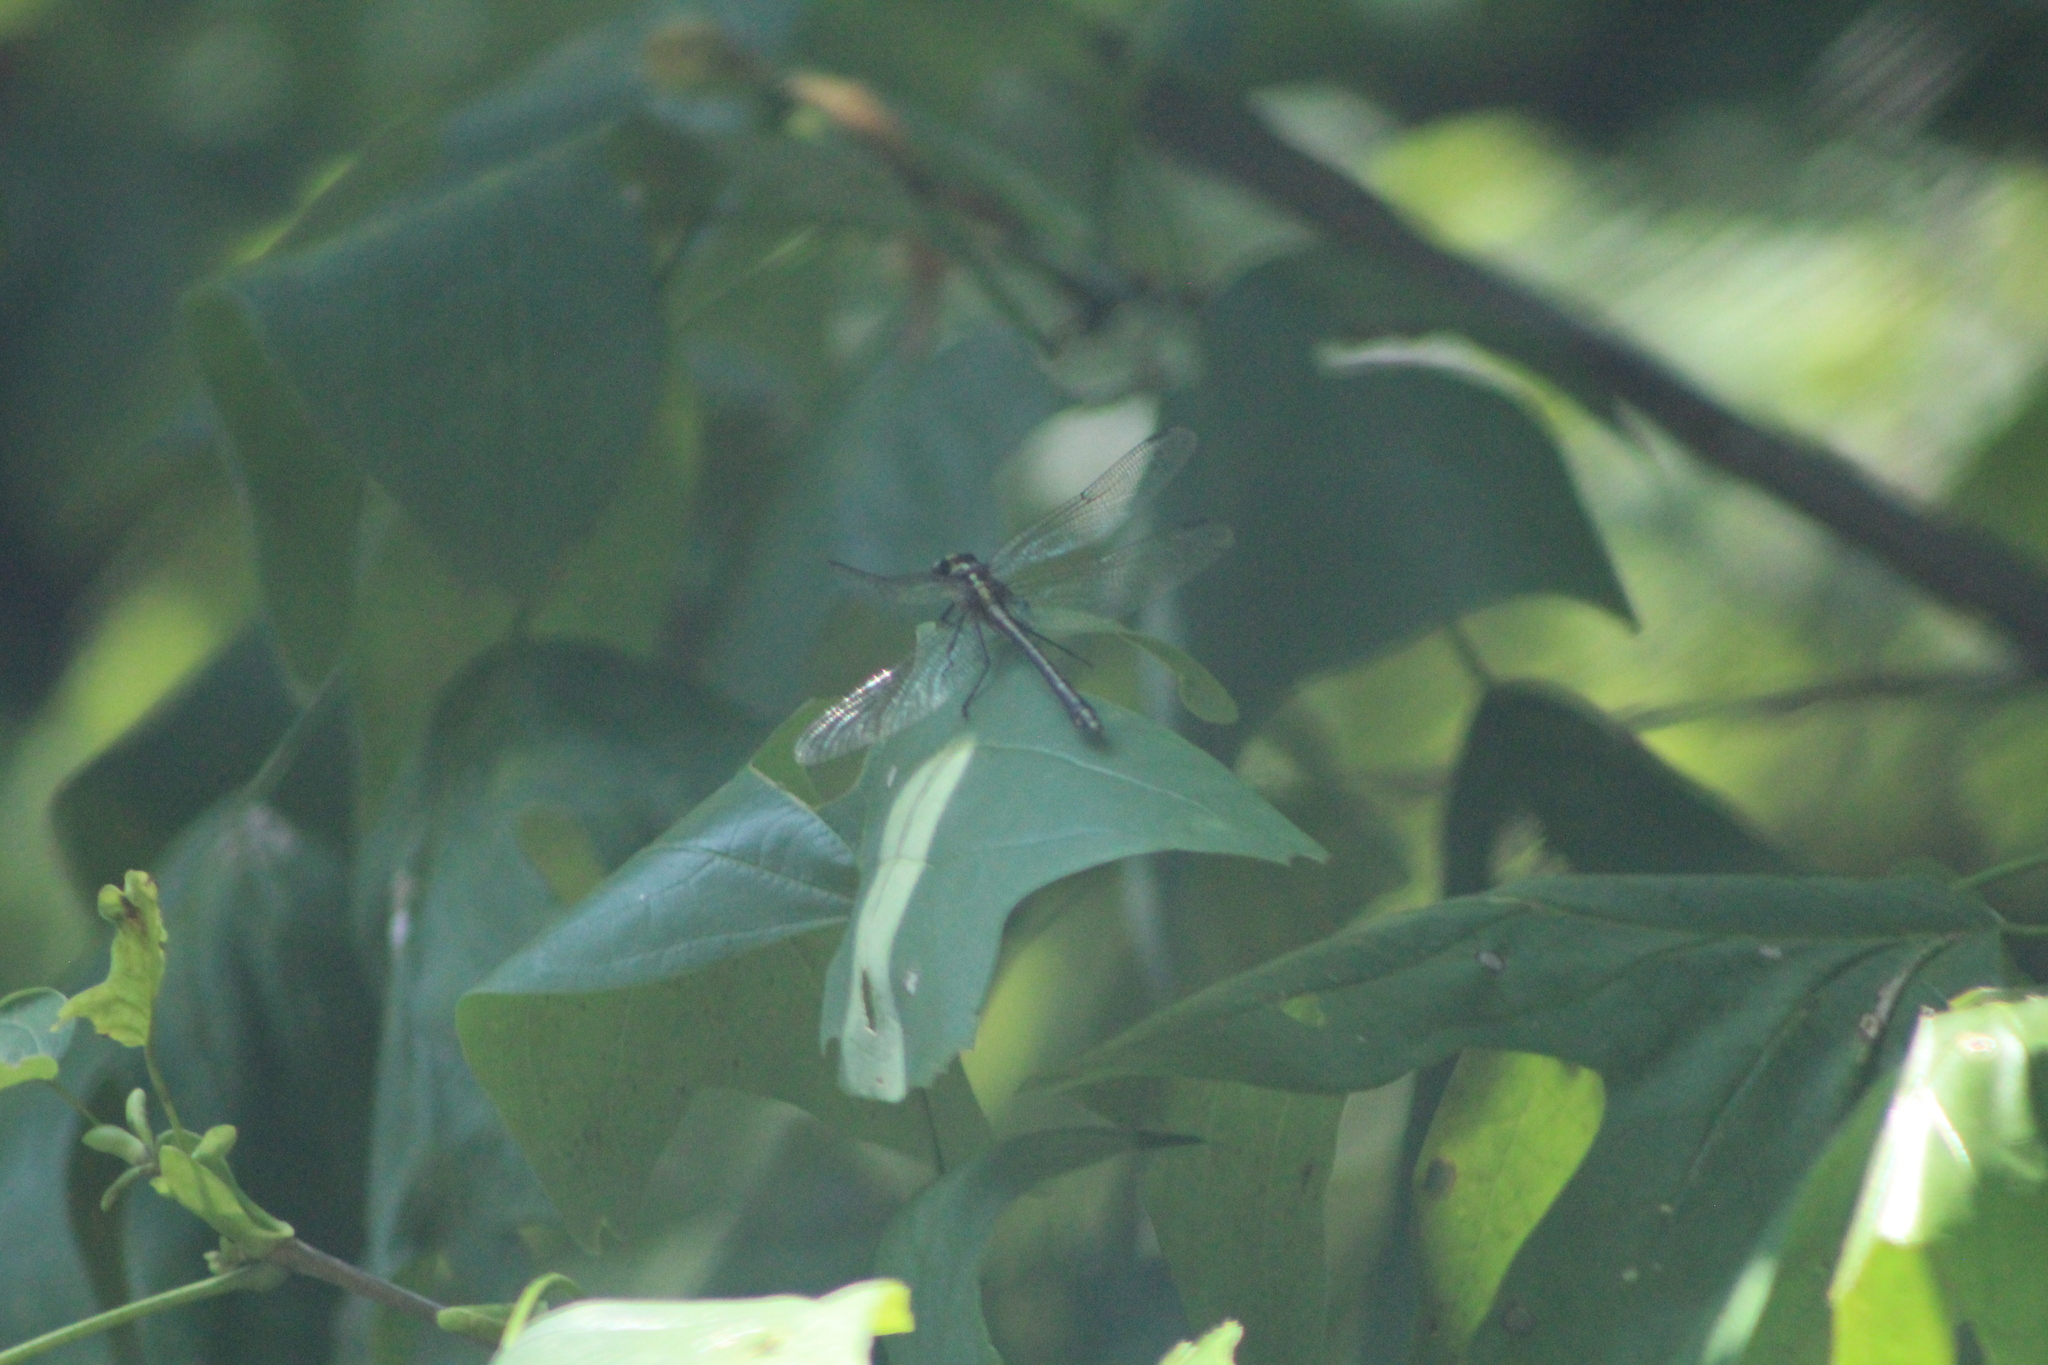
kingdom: Animalia
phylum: Arthropoda
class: Insecta
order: Odonata
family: Gomphidae
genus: Dromogomphus
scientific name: Dromogomphus spinosus
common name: Black-shouldered spinyleg
